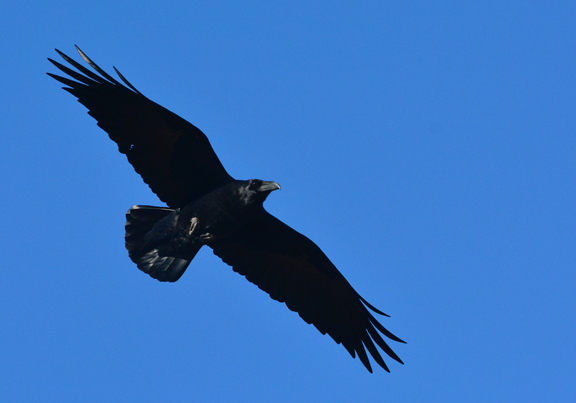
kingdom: Animalia
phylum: Chordata
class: Aves
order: Passeriformes
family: Corvidae
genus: Corvus
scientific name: Corvus corax
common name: Common raven
